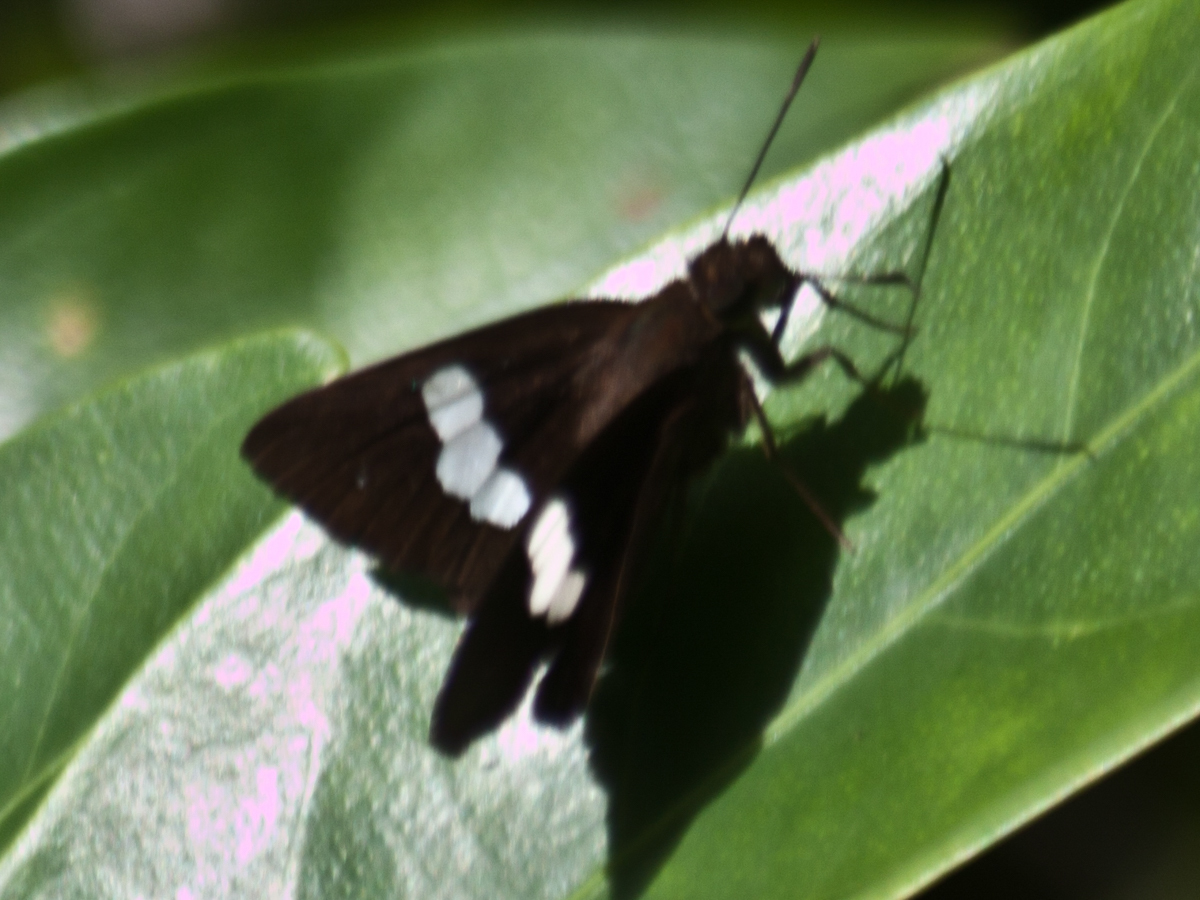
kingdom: Animalia
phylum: Arthropoda
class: Insecta
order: Lepidoptera
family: Hesperiidae
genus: Notocrypta
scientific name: Notocrypta paralysos
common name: Common banded demon
